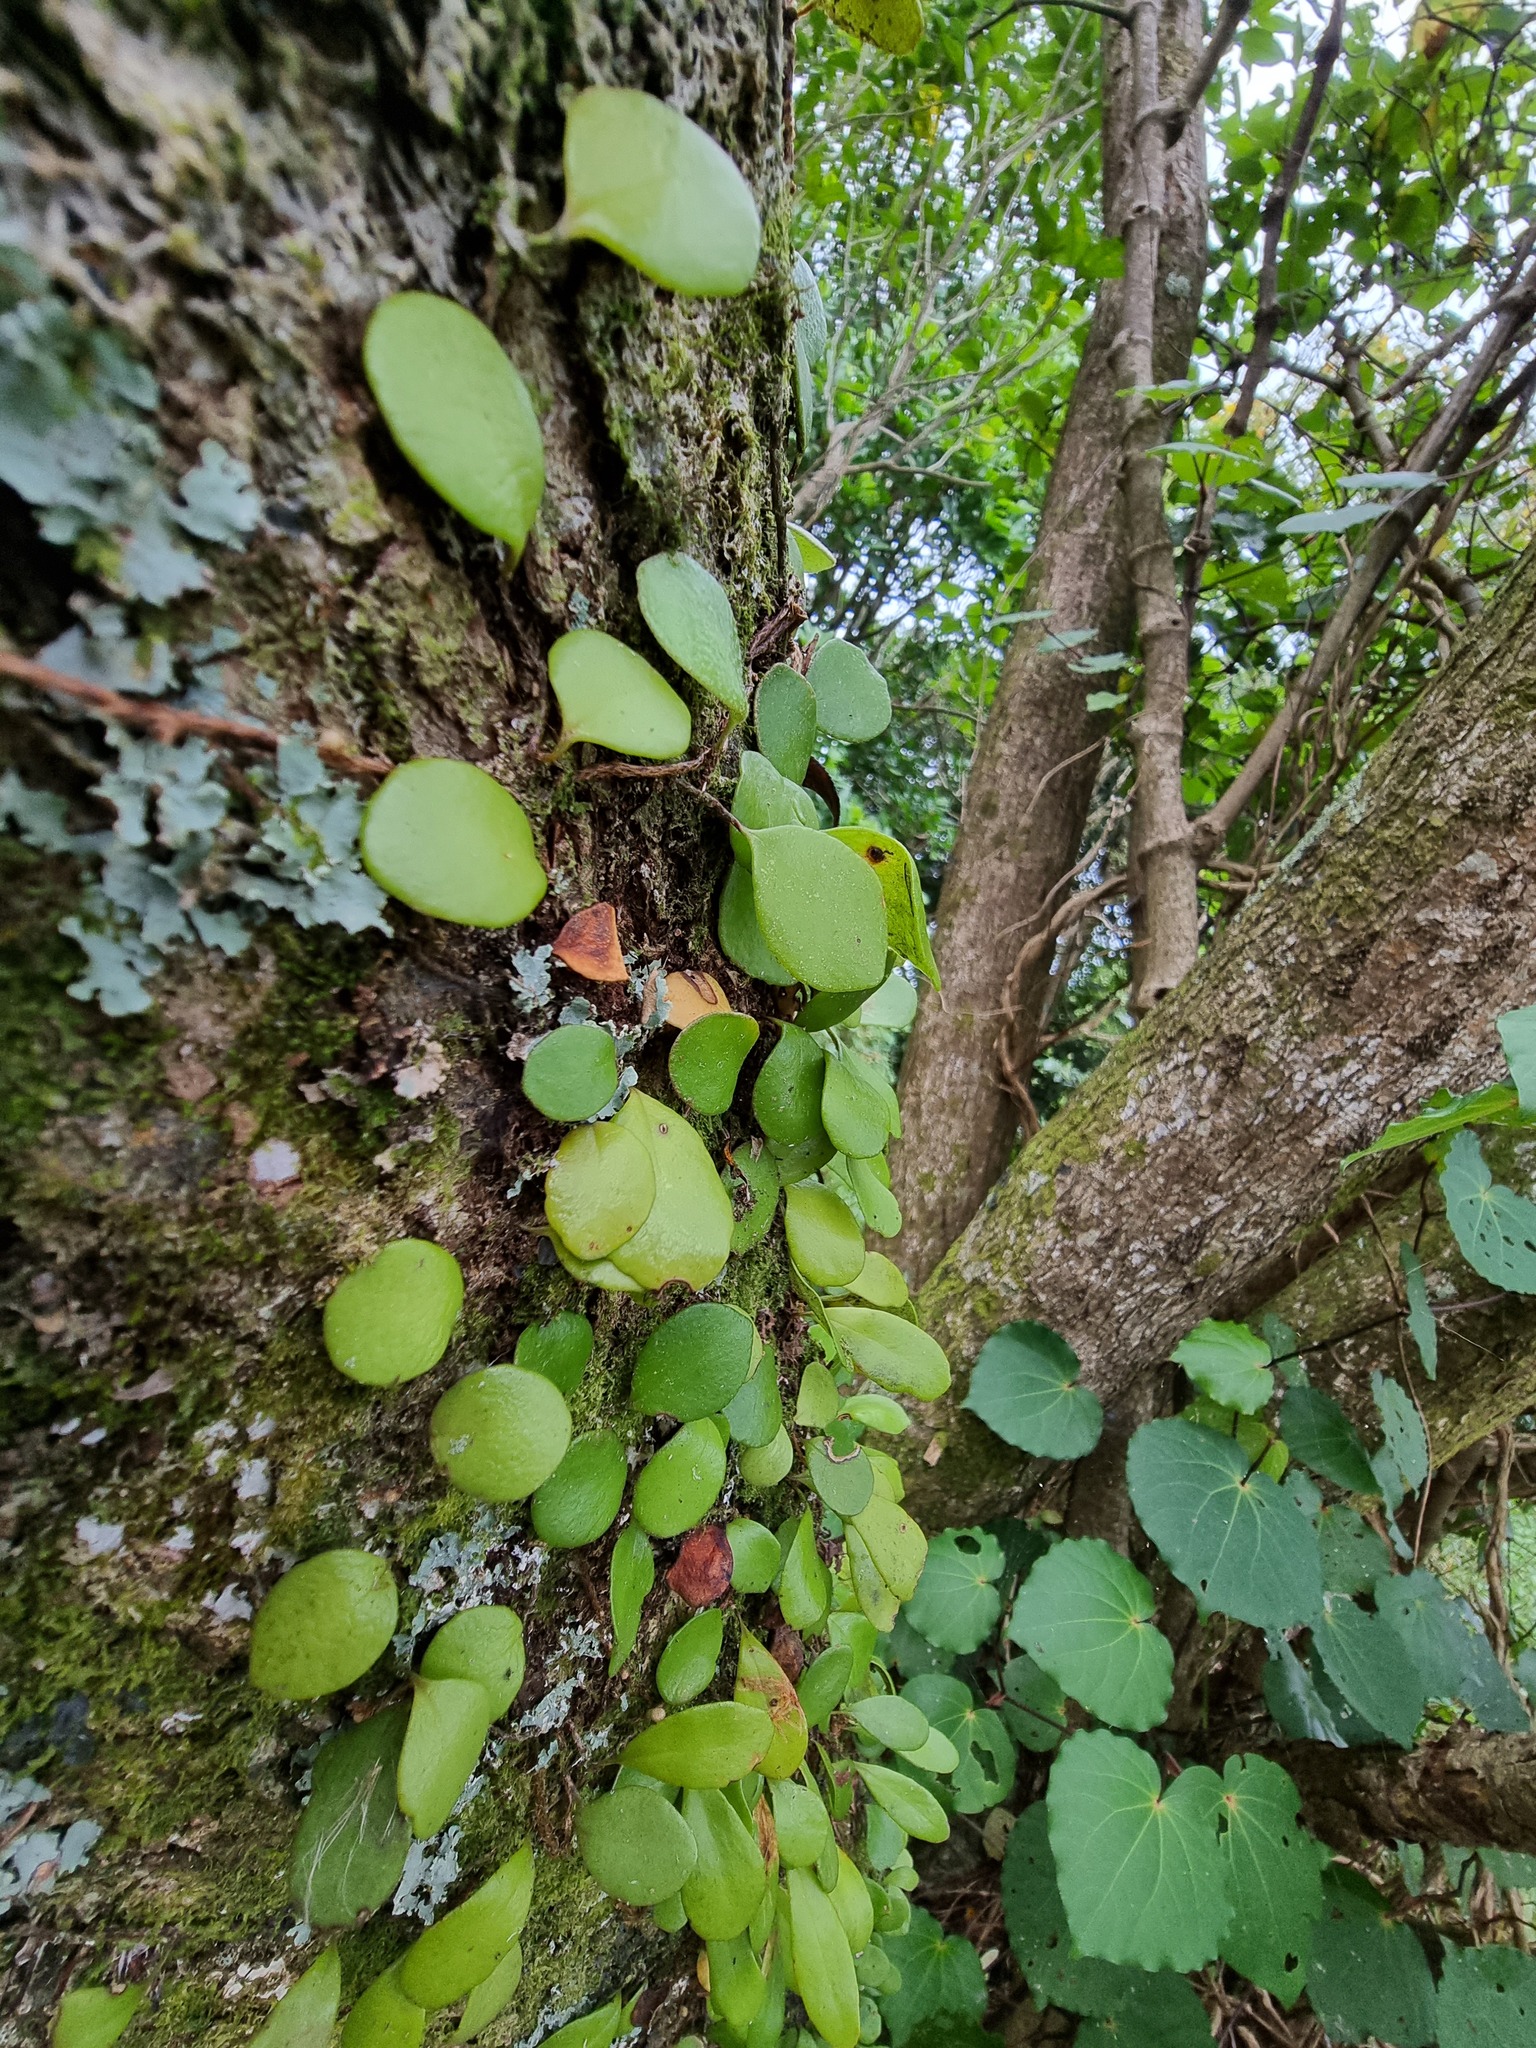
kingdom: Plantae
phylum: Tracheophyta
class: Polypodiopsida
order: Polypodiales
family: Polypodiaceae
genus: Pyrrosia
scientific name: Pyrrosia eleagnifolia
